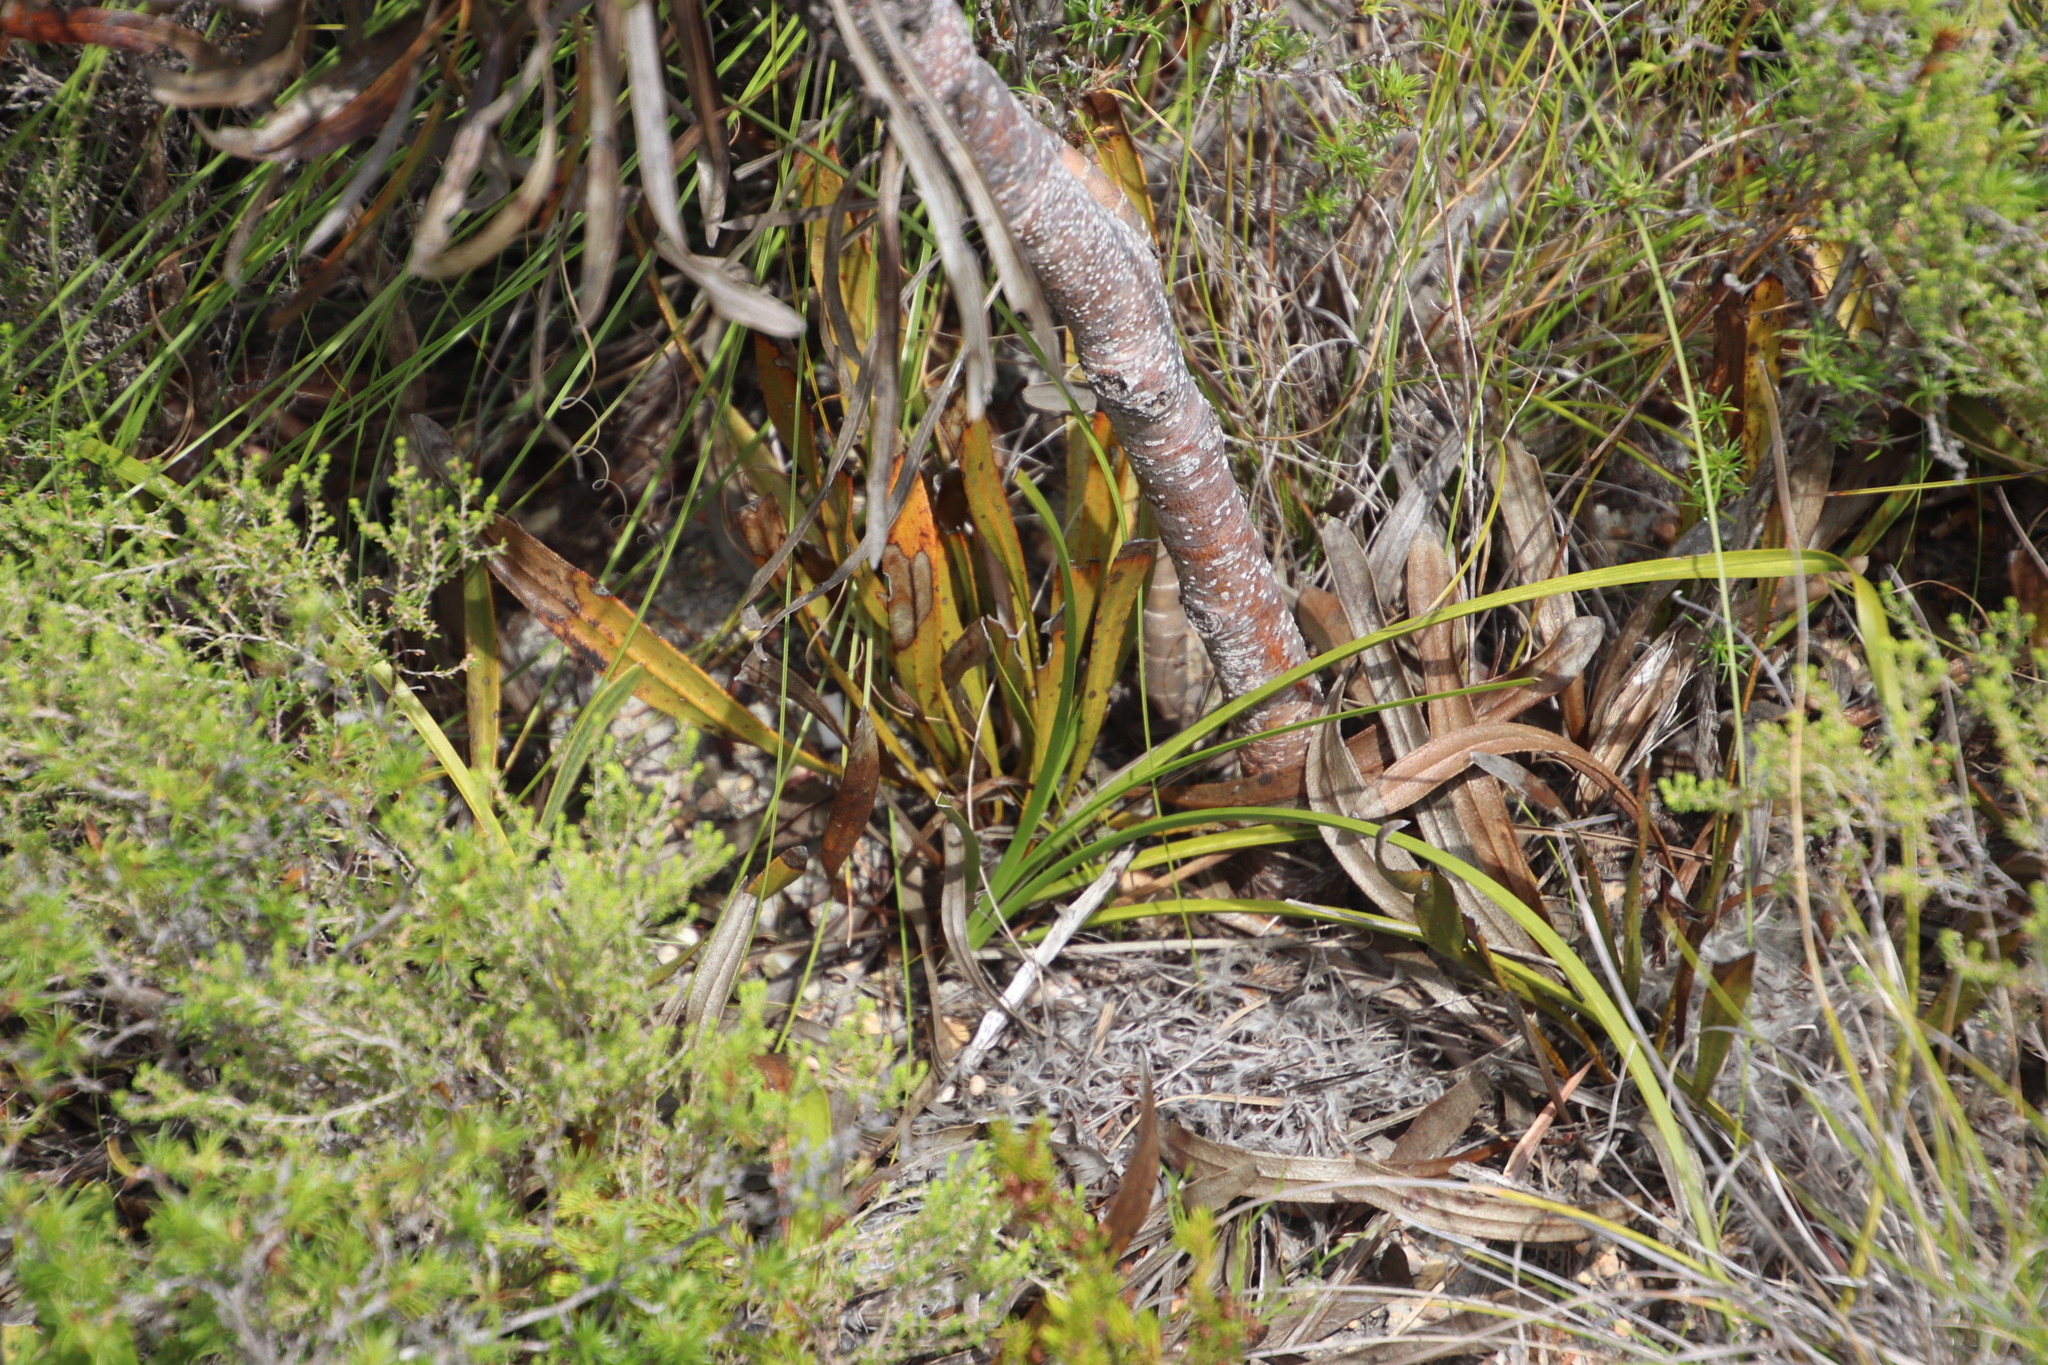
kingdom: Plantae
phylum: Tracheophyta
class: Magnoliopsida
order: Proteales
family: Proteaceae
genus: Protea
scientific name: Protea aspera
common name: Rough-leaf sugarbush
